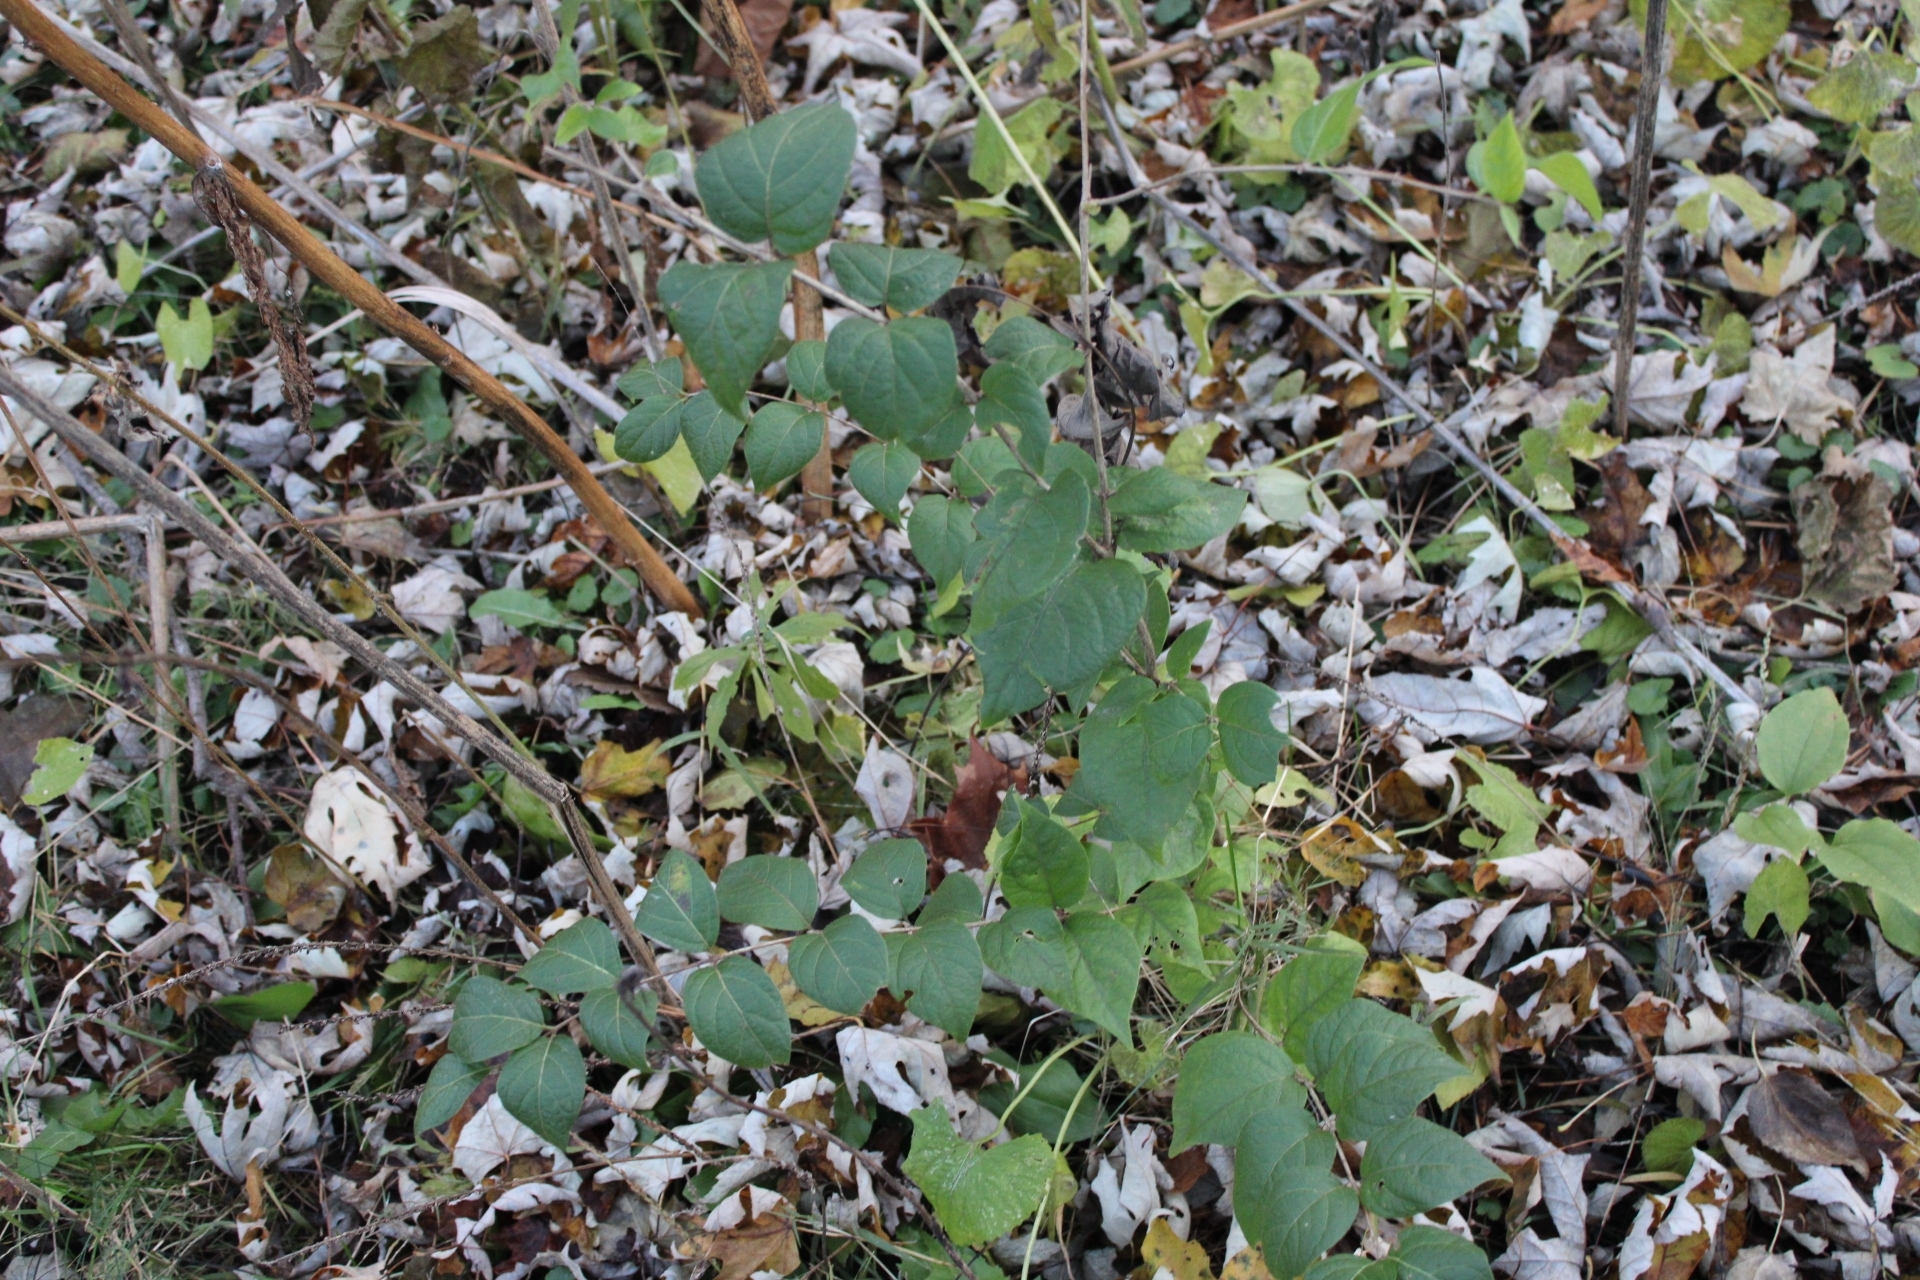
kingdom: Plantae
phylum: Tracheophyta
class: Magnoliopsida
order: Dipsacales
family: Caprifoliaceae
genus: Lonicera
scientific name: Lonicera maackii
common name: Amur honeysuckle
